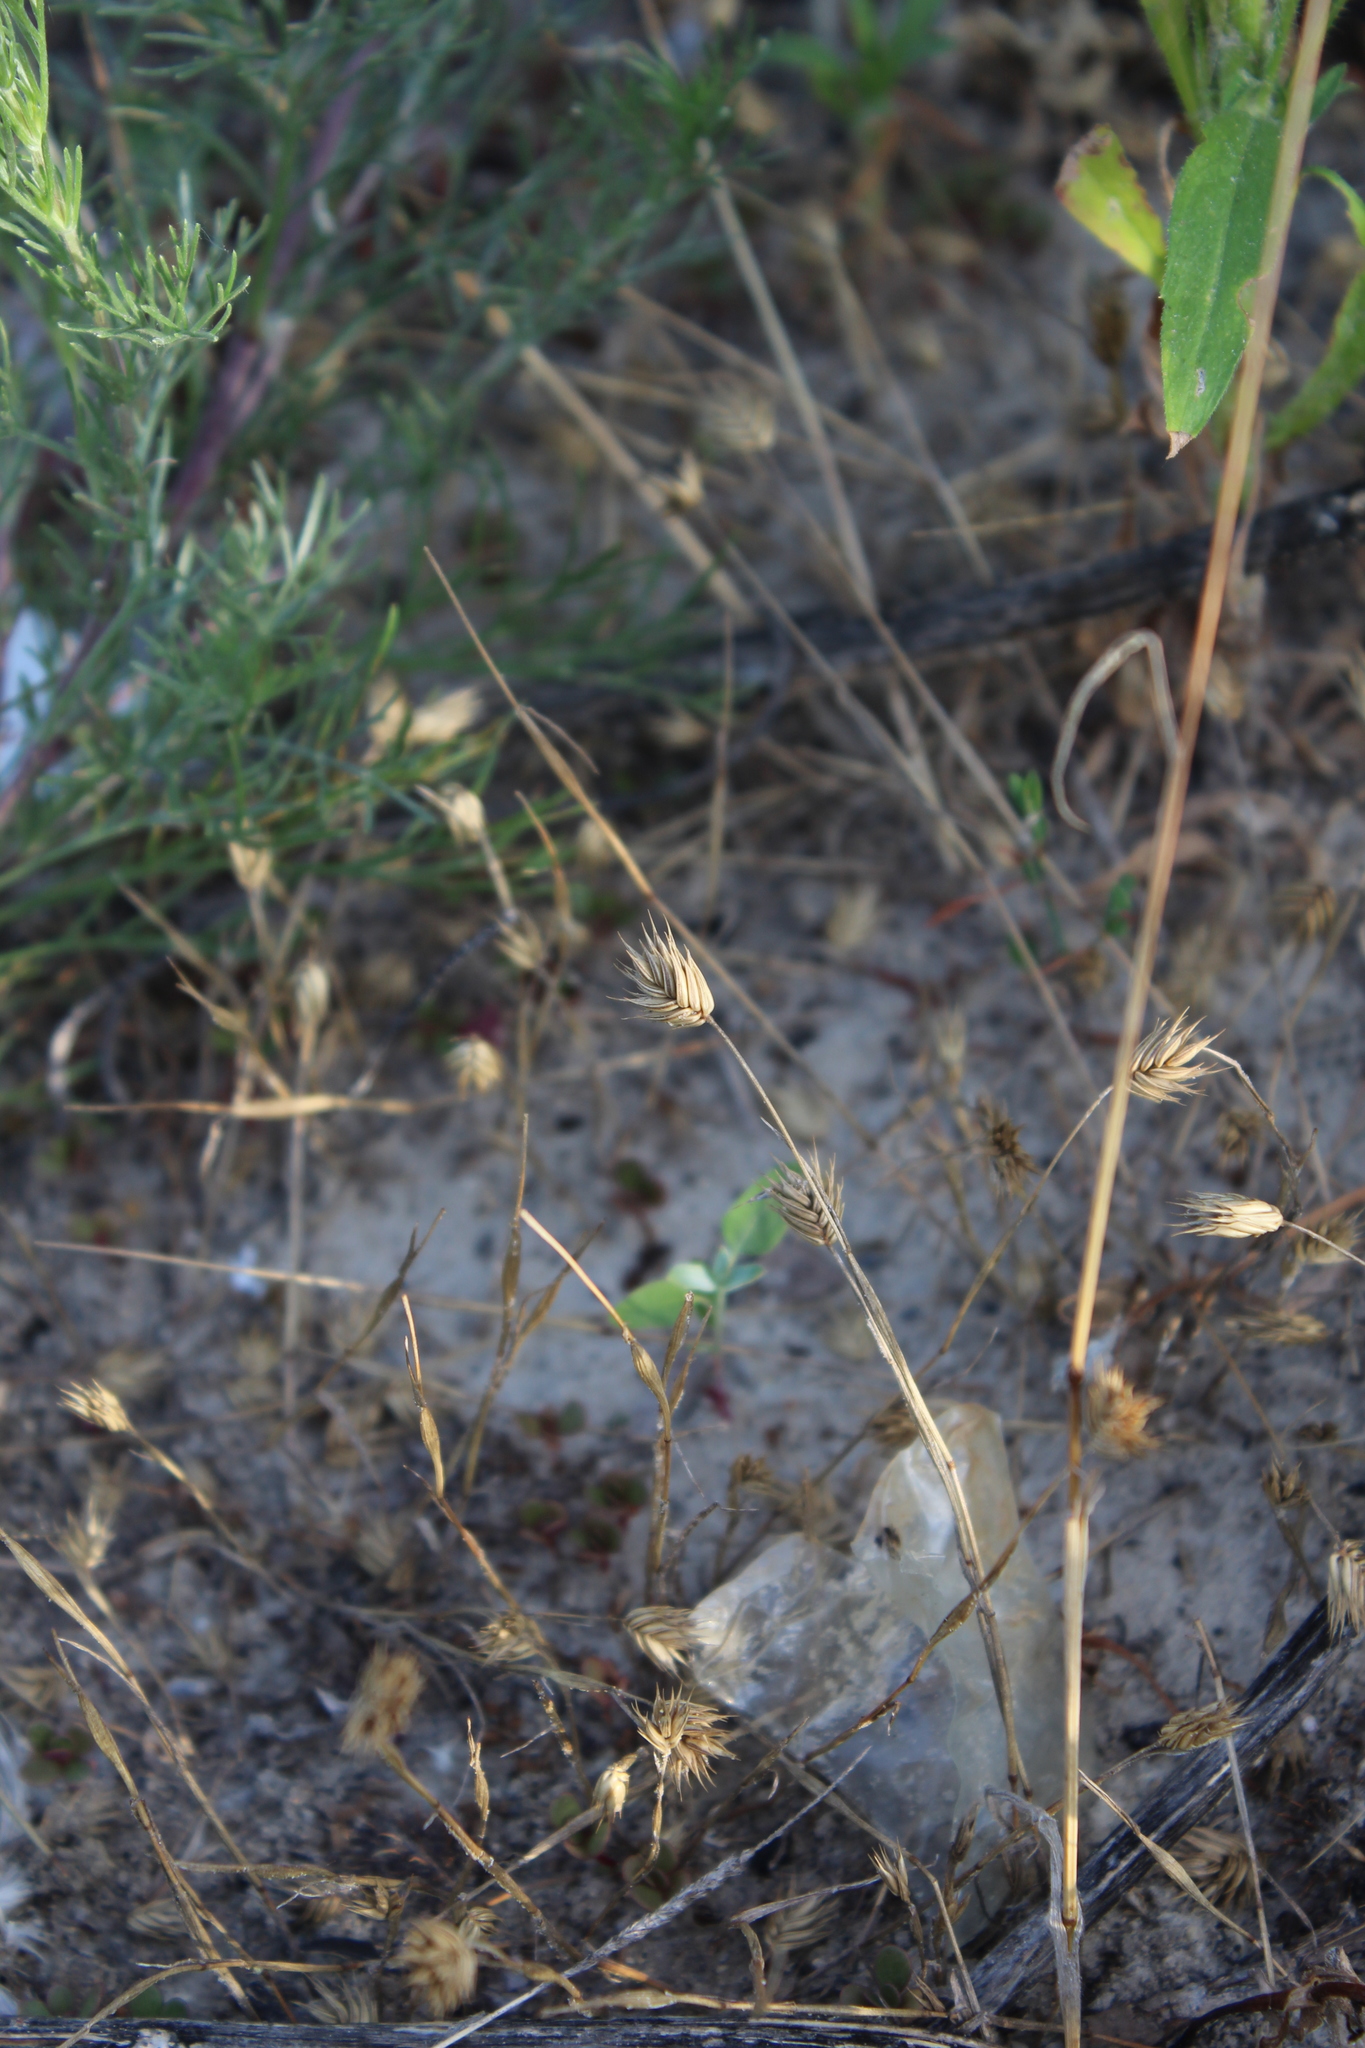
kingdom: Plantae
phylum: Tracheophyta
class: Liliopsida
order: Poales
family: Poaceae
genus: Eremopyrum
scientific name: Eremopyrum triticeum
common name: Annual wheatgrass
